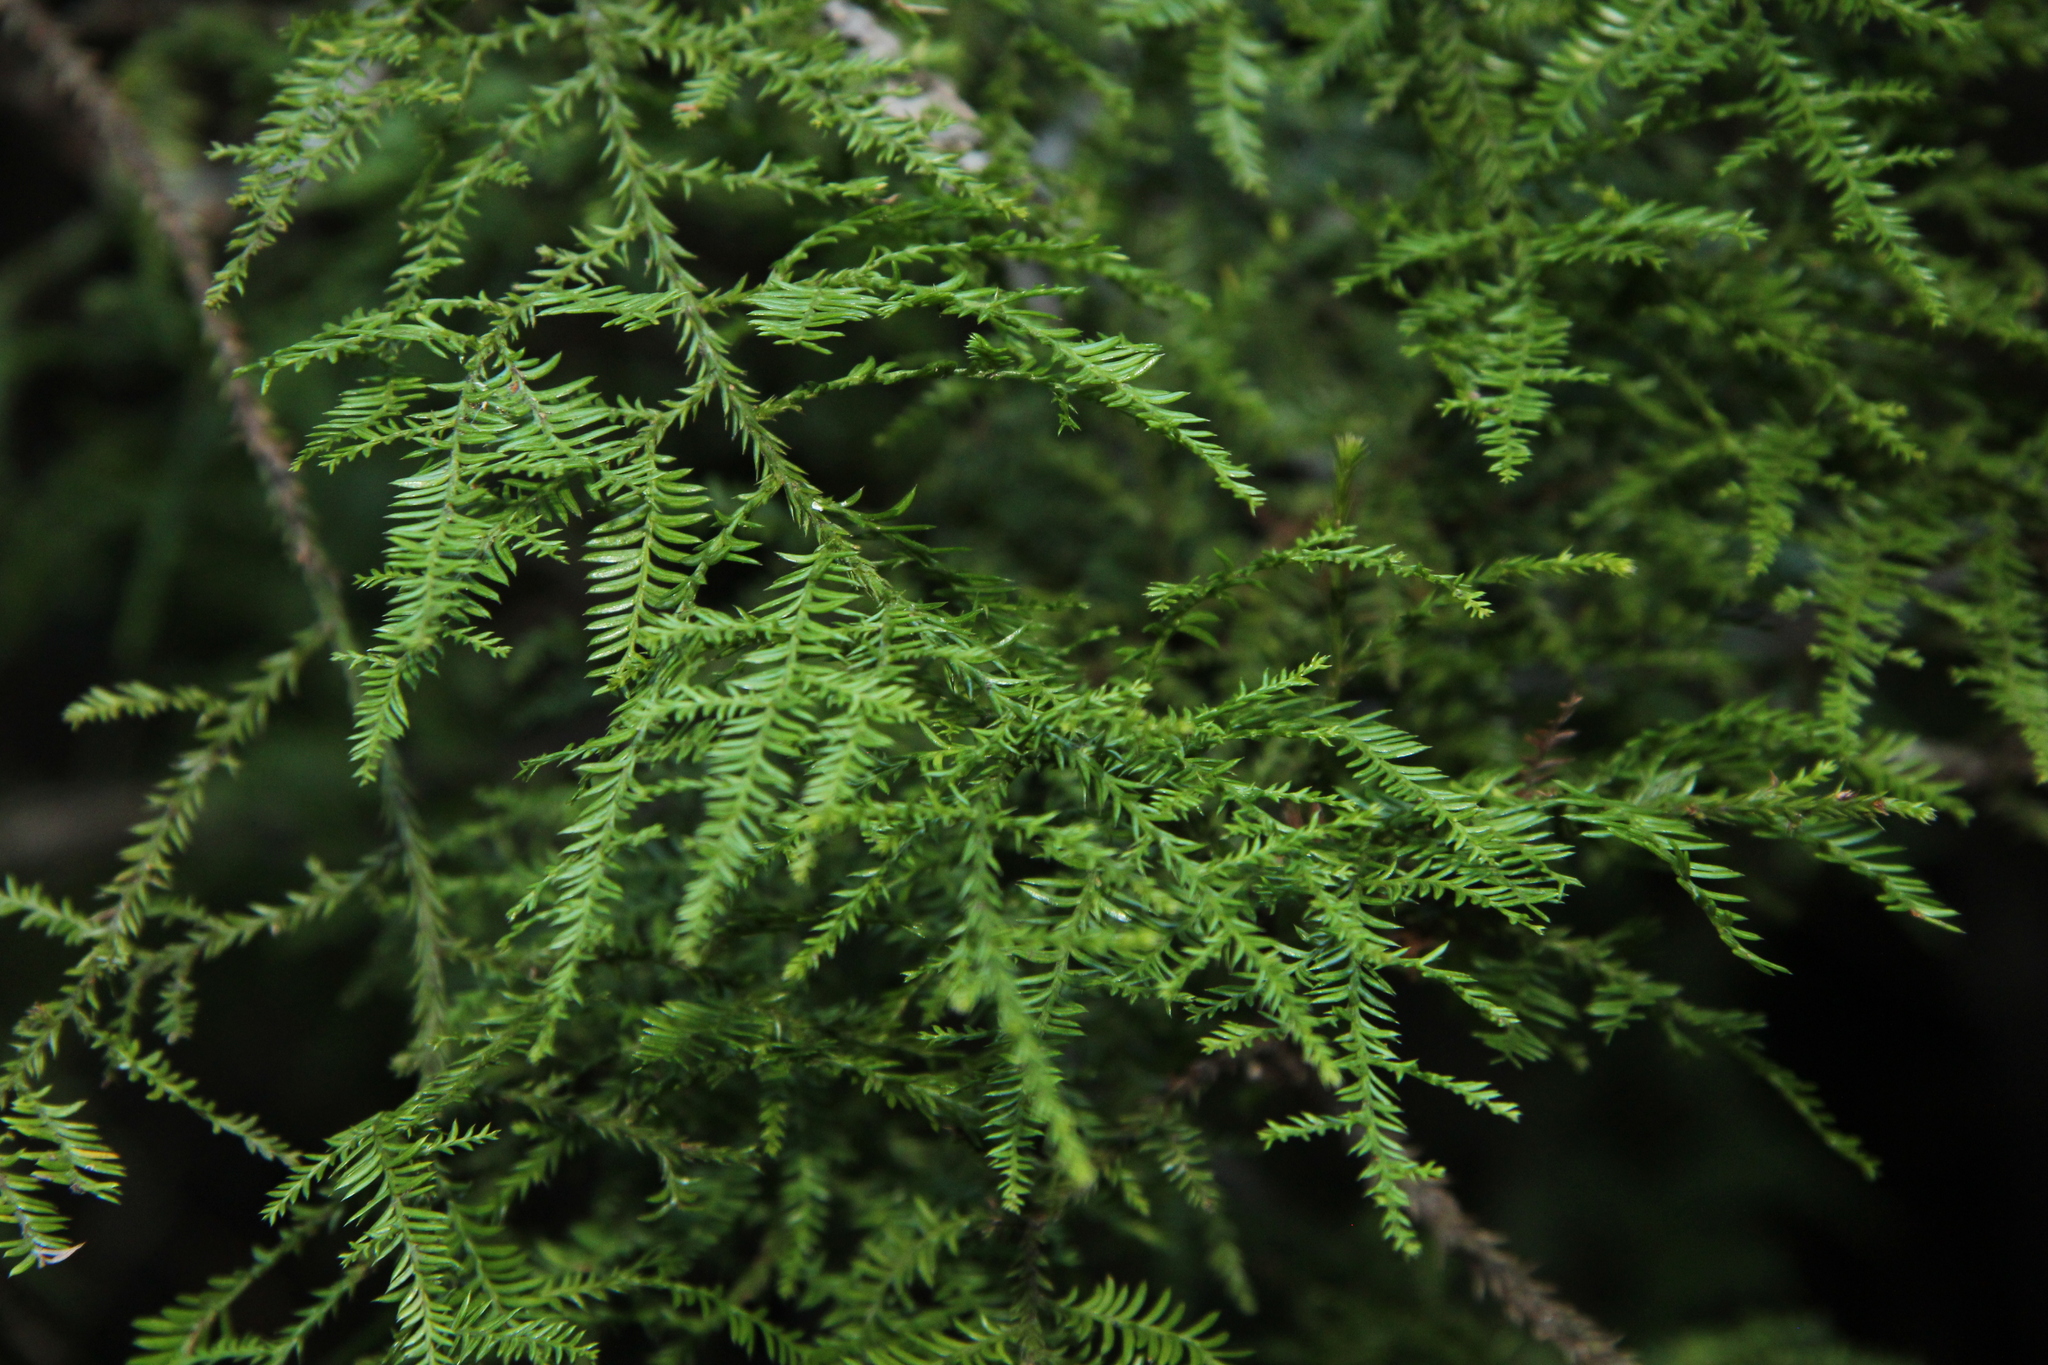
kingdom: Plantae
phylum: Tracheophyta
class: Pinopsida
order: Pinales
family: Podocarpaceae
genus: Podocarpus
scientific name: Podocarpus totara
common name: Totara
